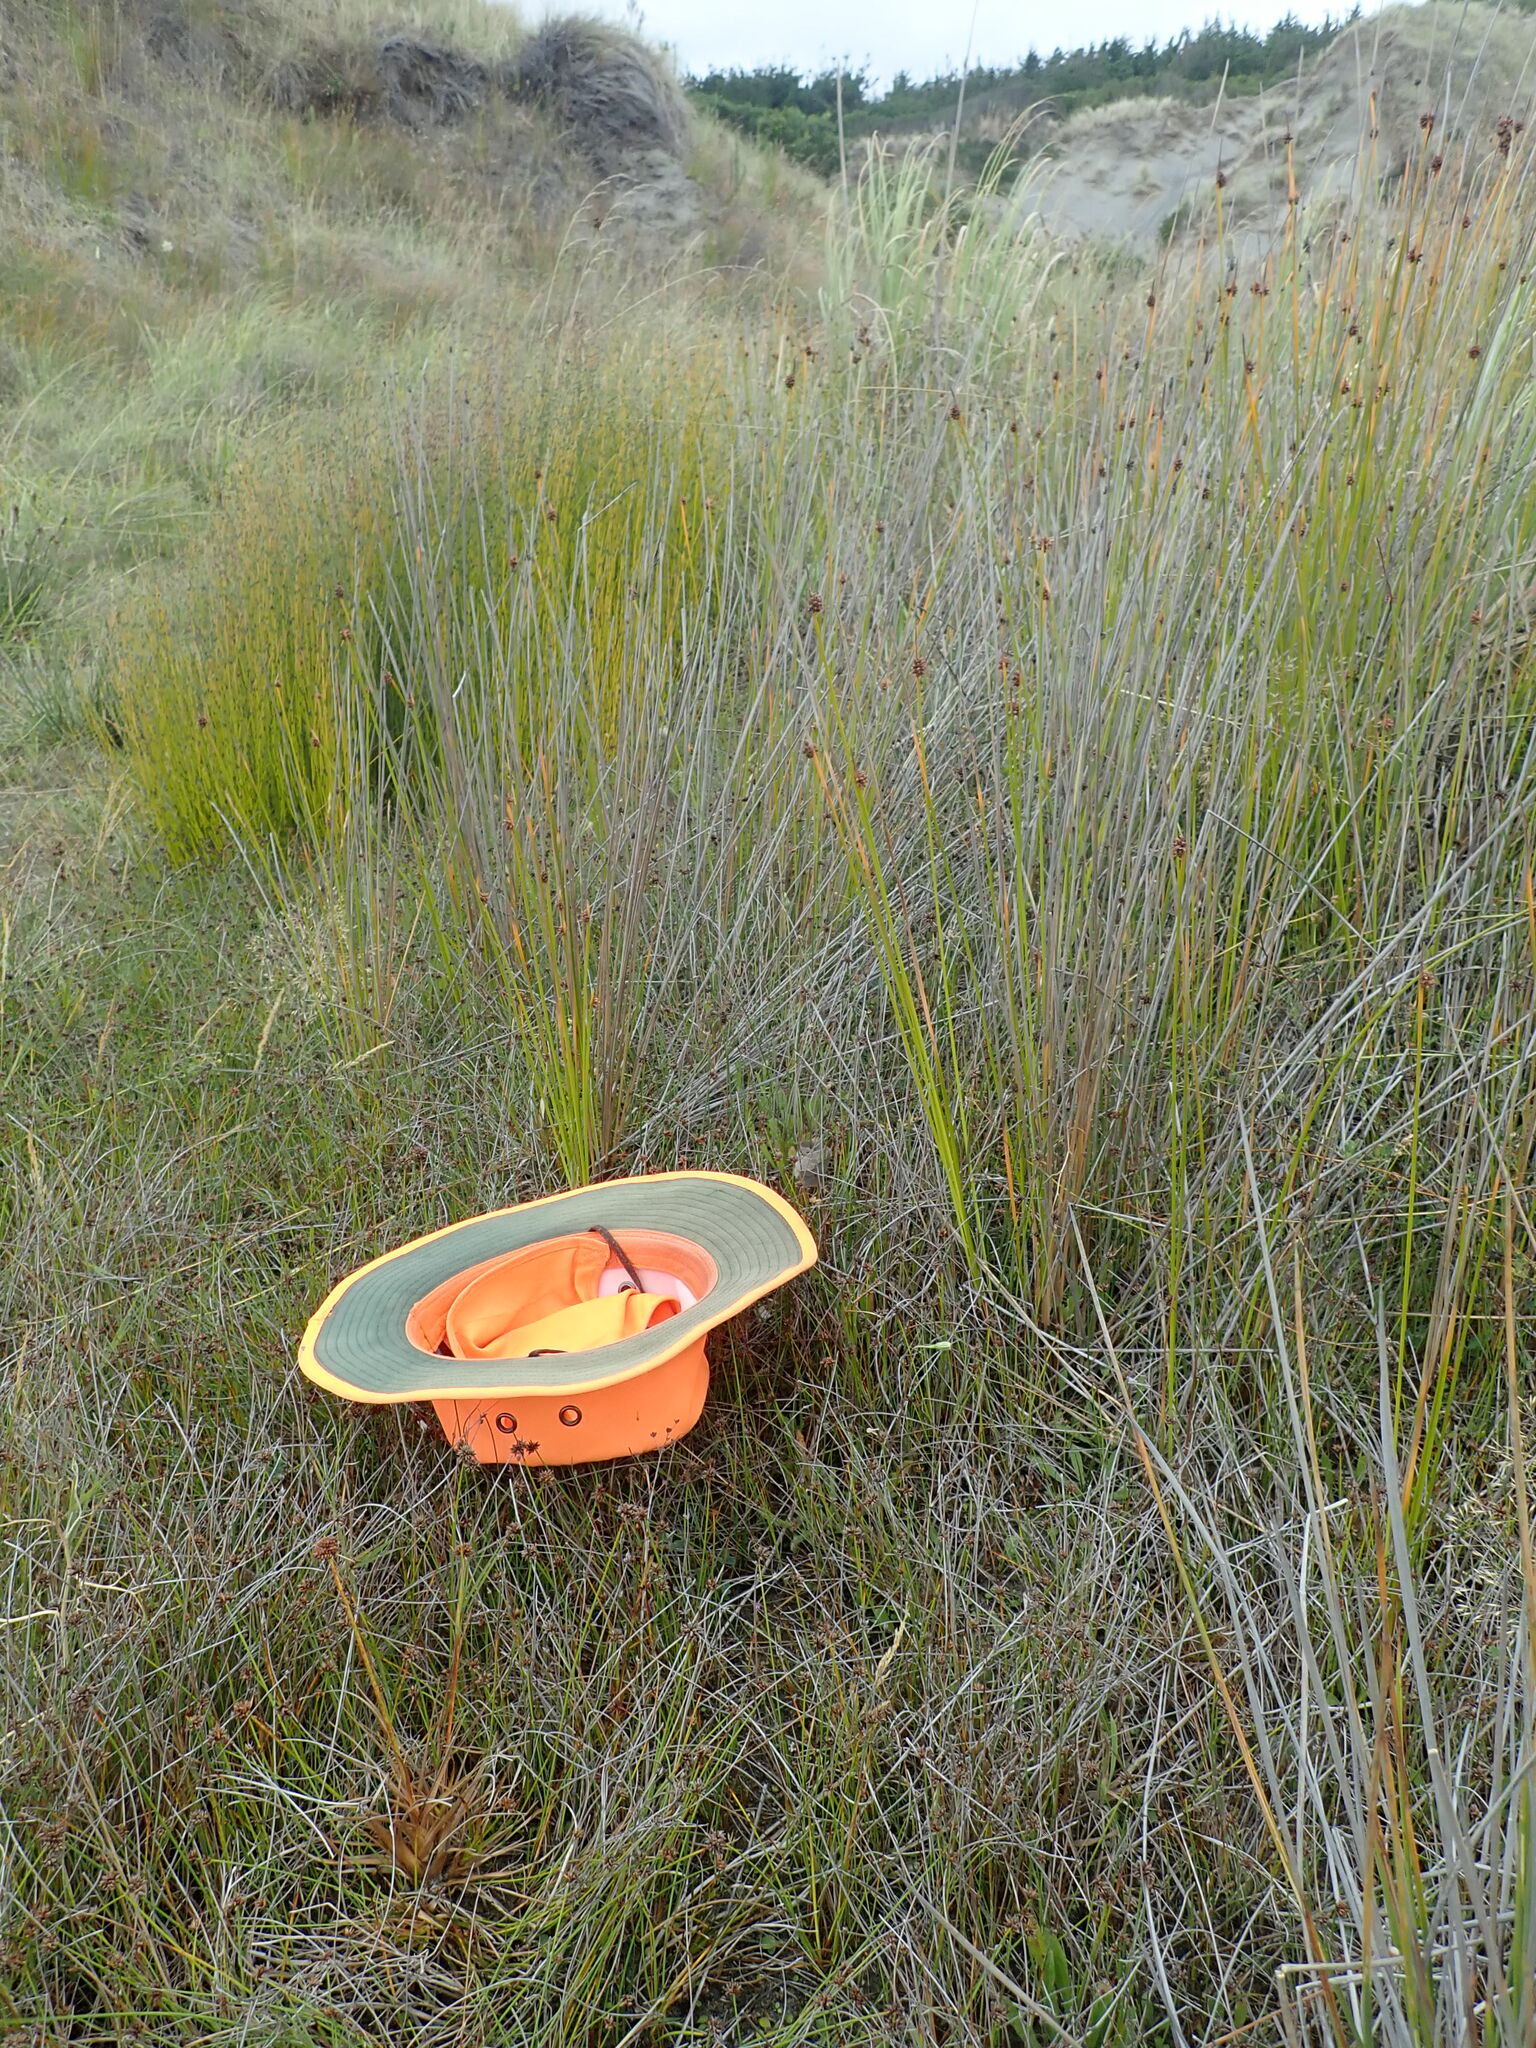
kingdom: Plantae
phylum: Tracheophyta
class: Liliopsida
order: Poales
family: Juncaceae
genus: Juncus
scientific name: Juncus caespiticius
